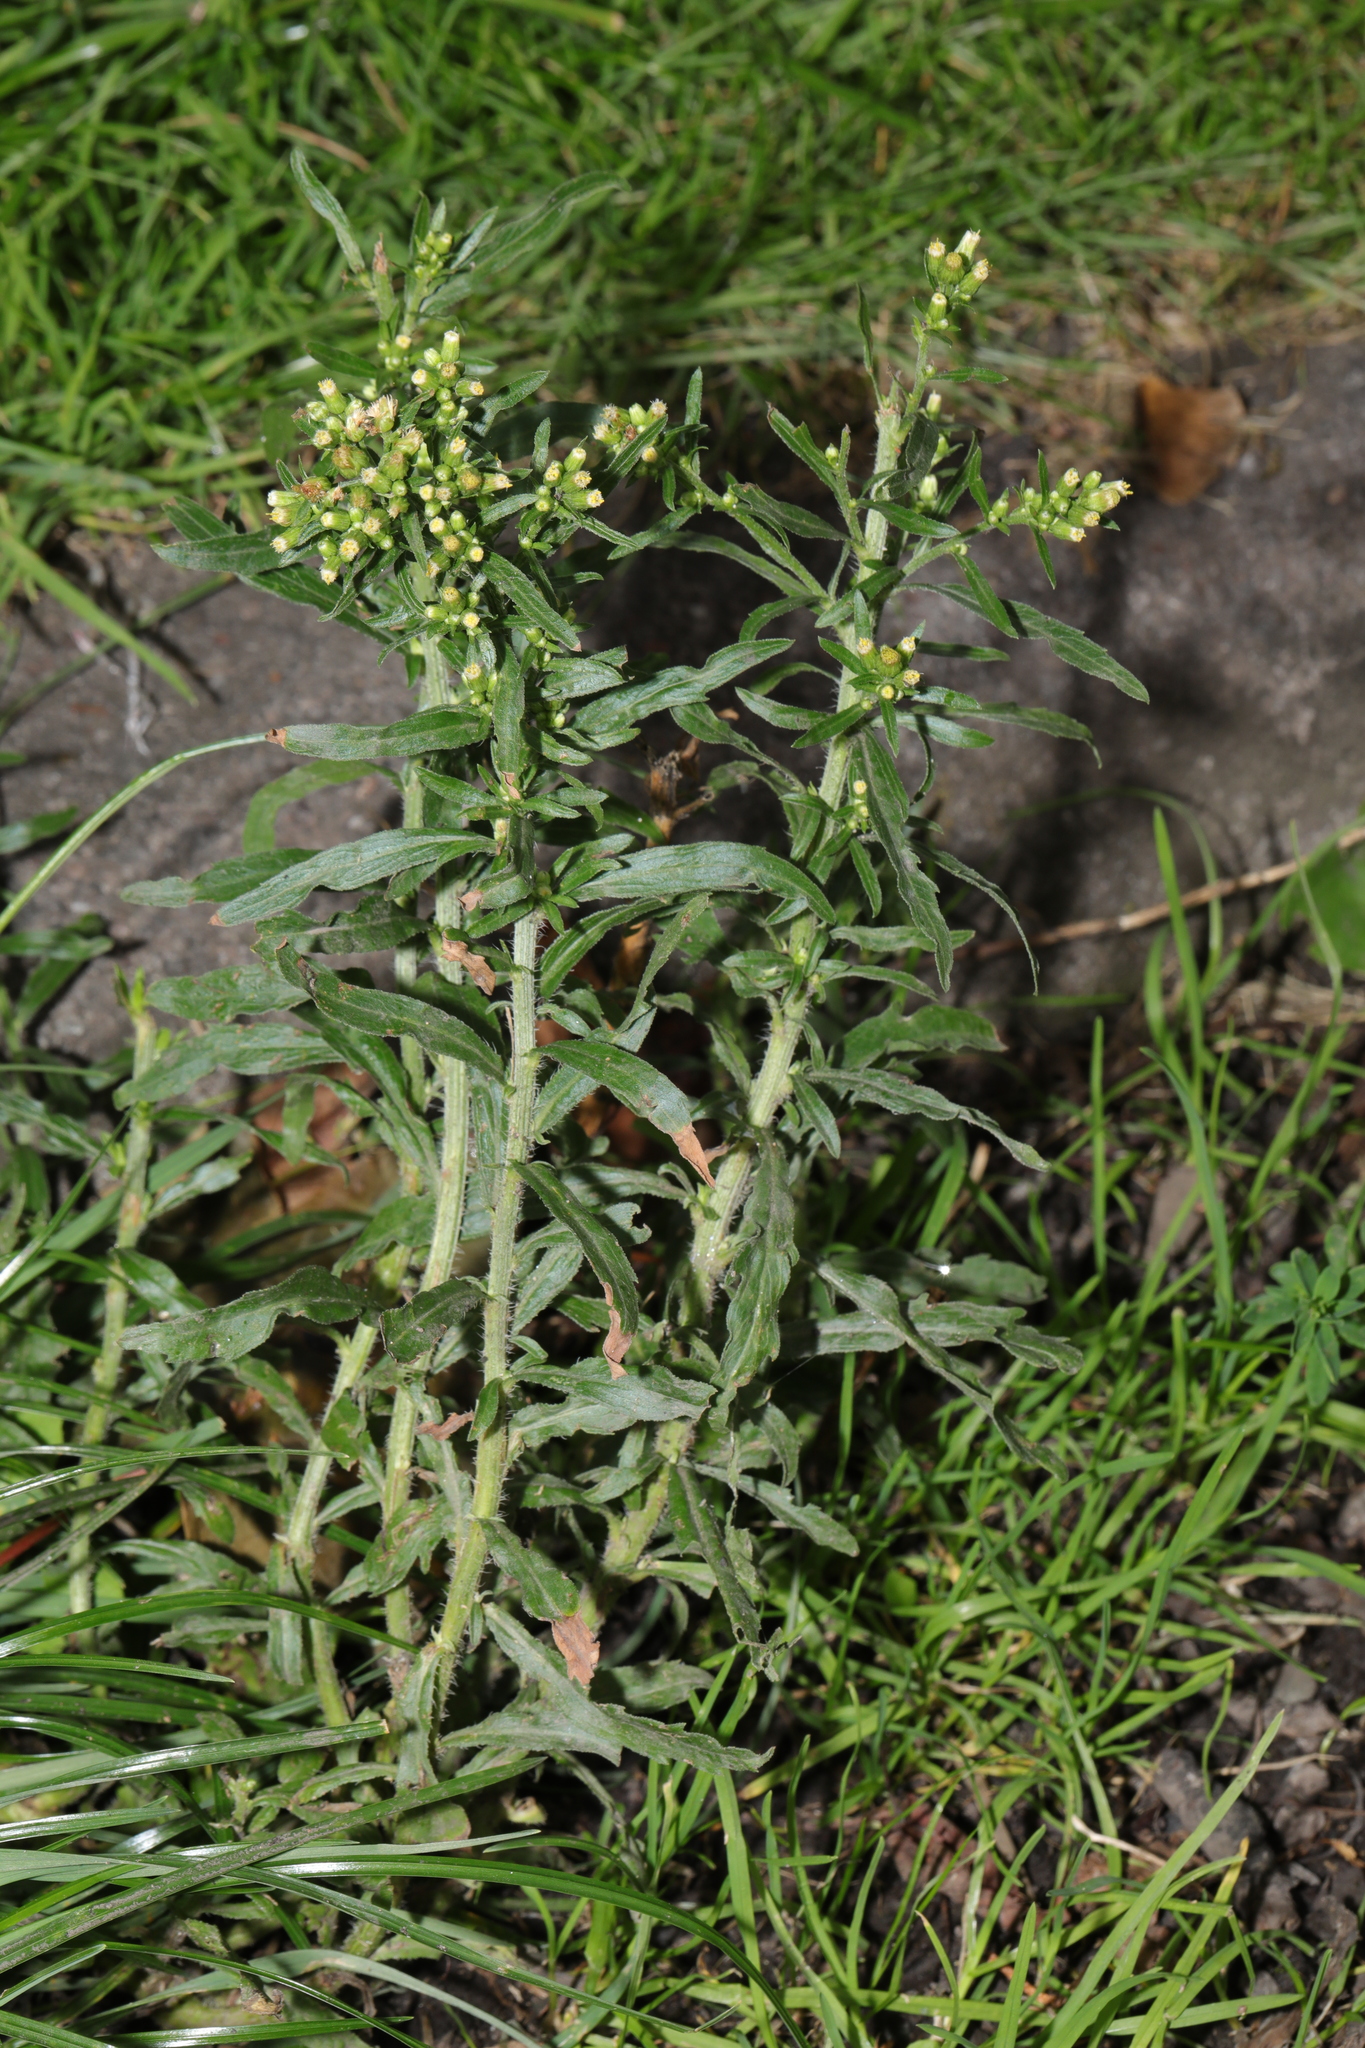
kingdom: Plantae
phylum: Tracheophyta
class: Magnoliopsida
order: Asterales
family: Asteraceae
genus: Erigeron
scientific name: Erigeron canadensis
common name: Canadian fleabane
